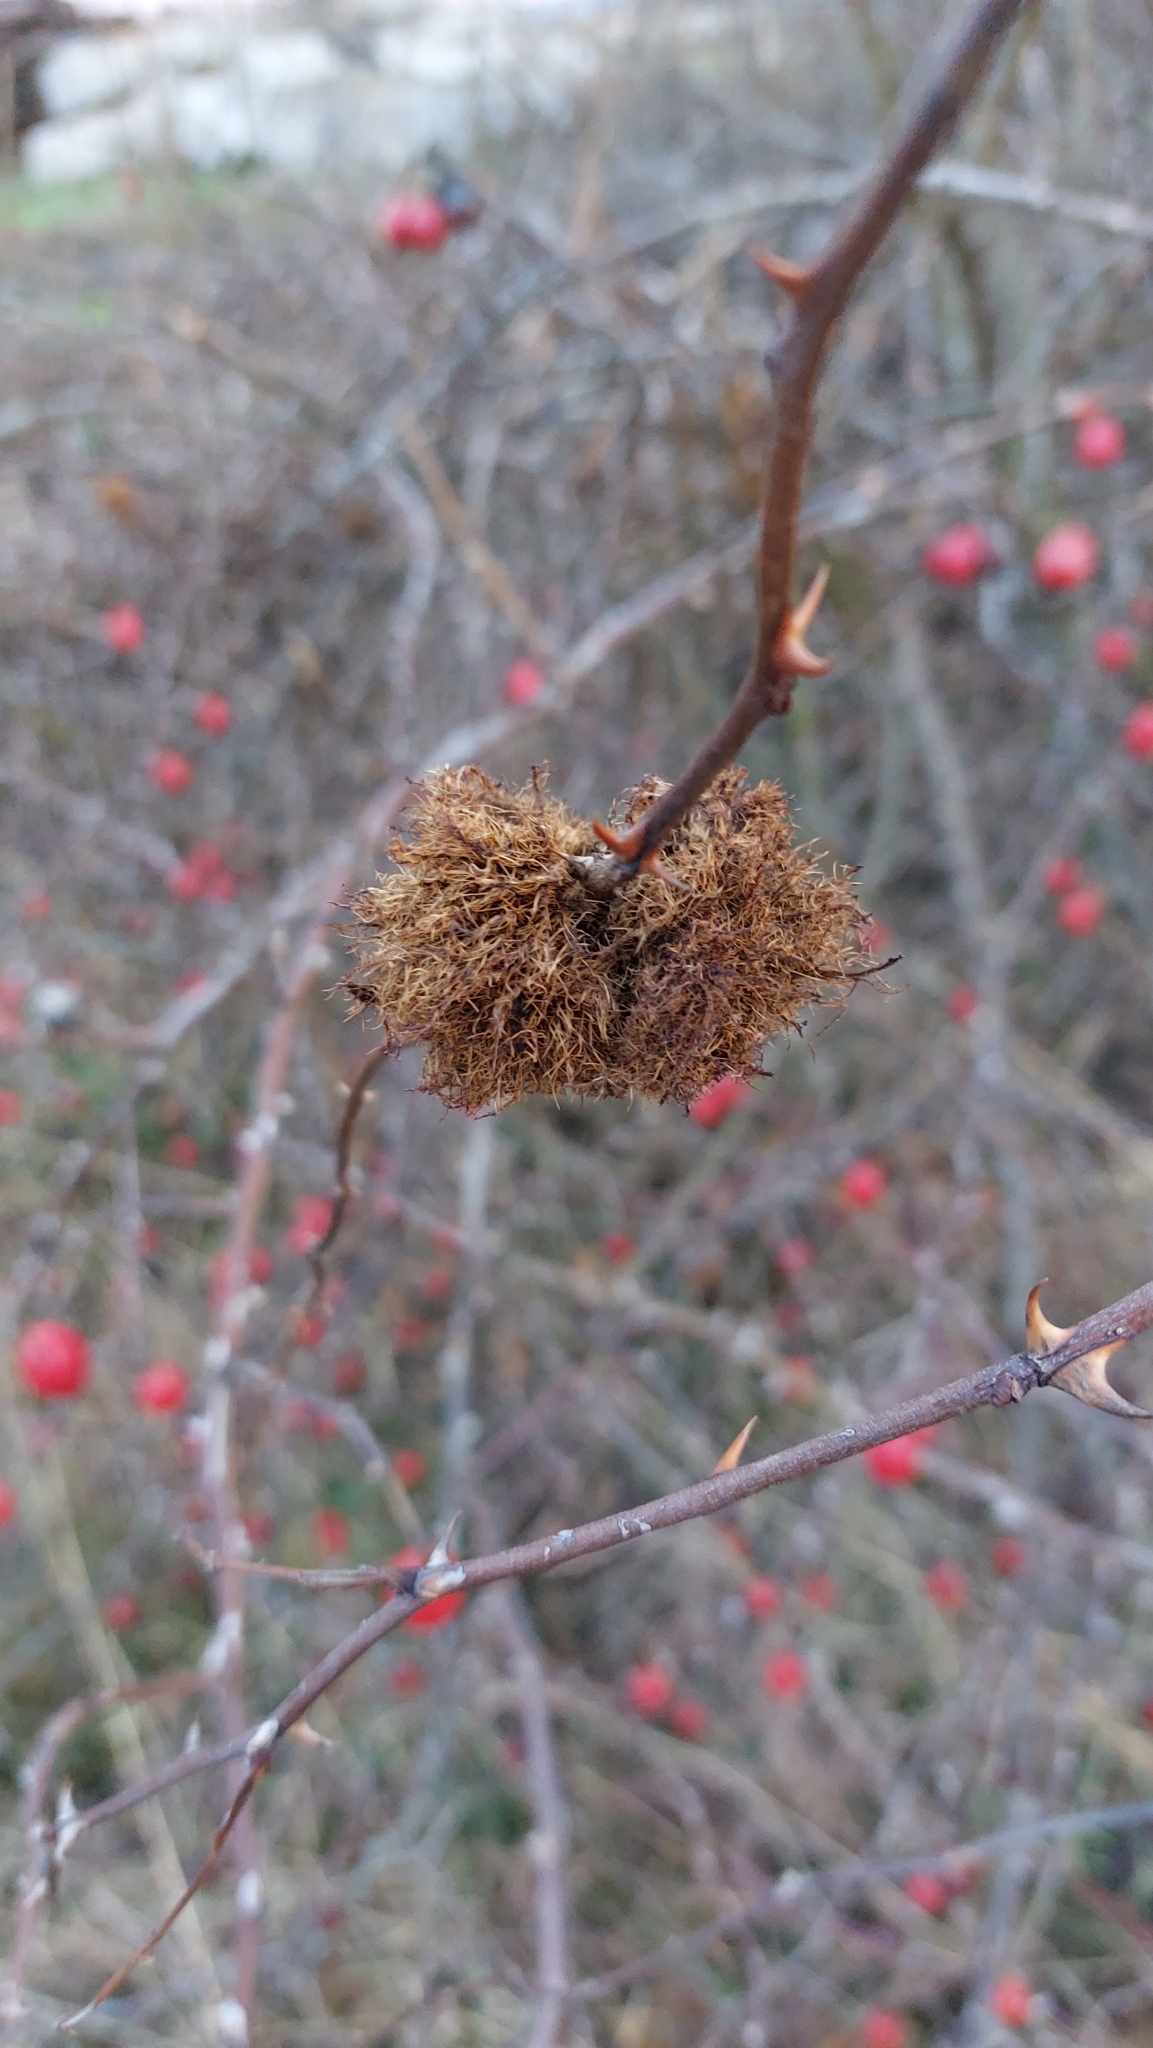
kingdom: Animalia
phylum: Arthropoda
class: Insecta
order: Hymenoptera
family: Cynipidae
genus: Diplolepis
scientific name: Diplolepis rosae
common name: Bedeguar gall
